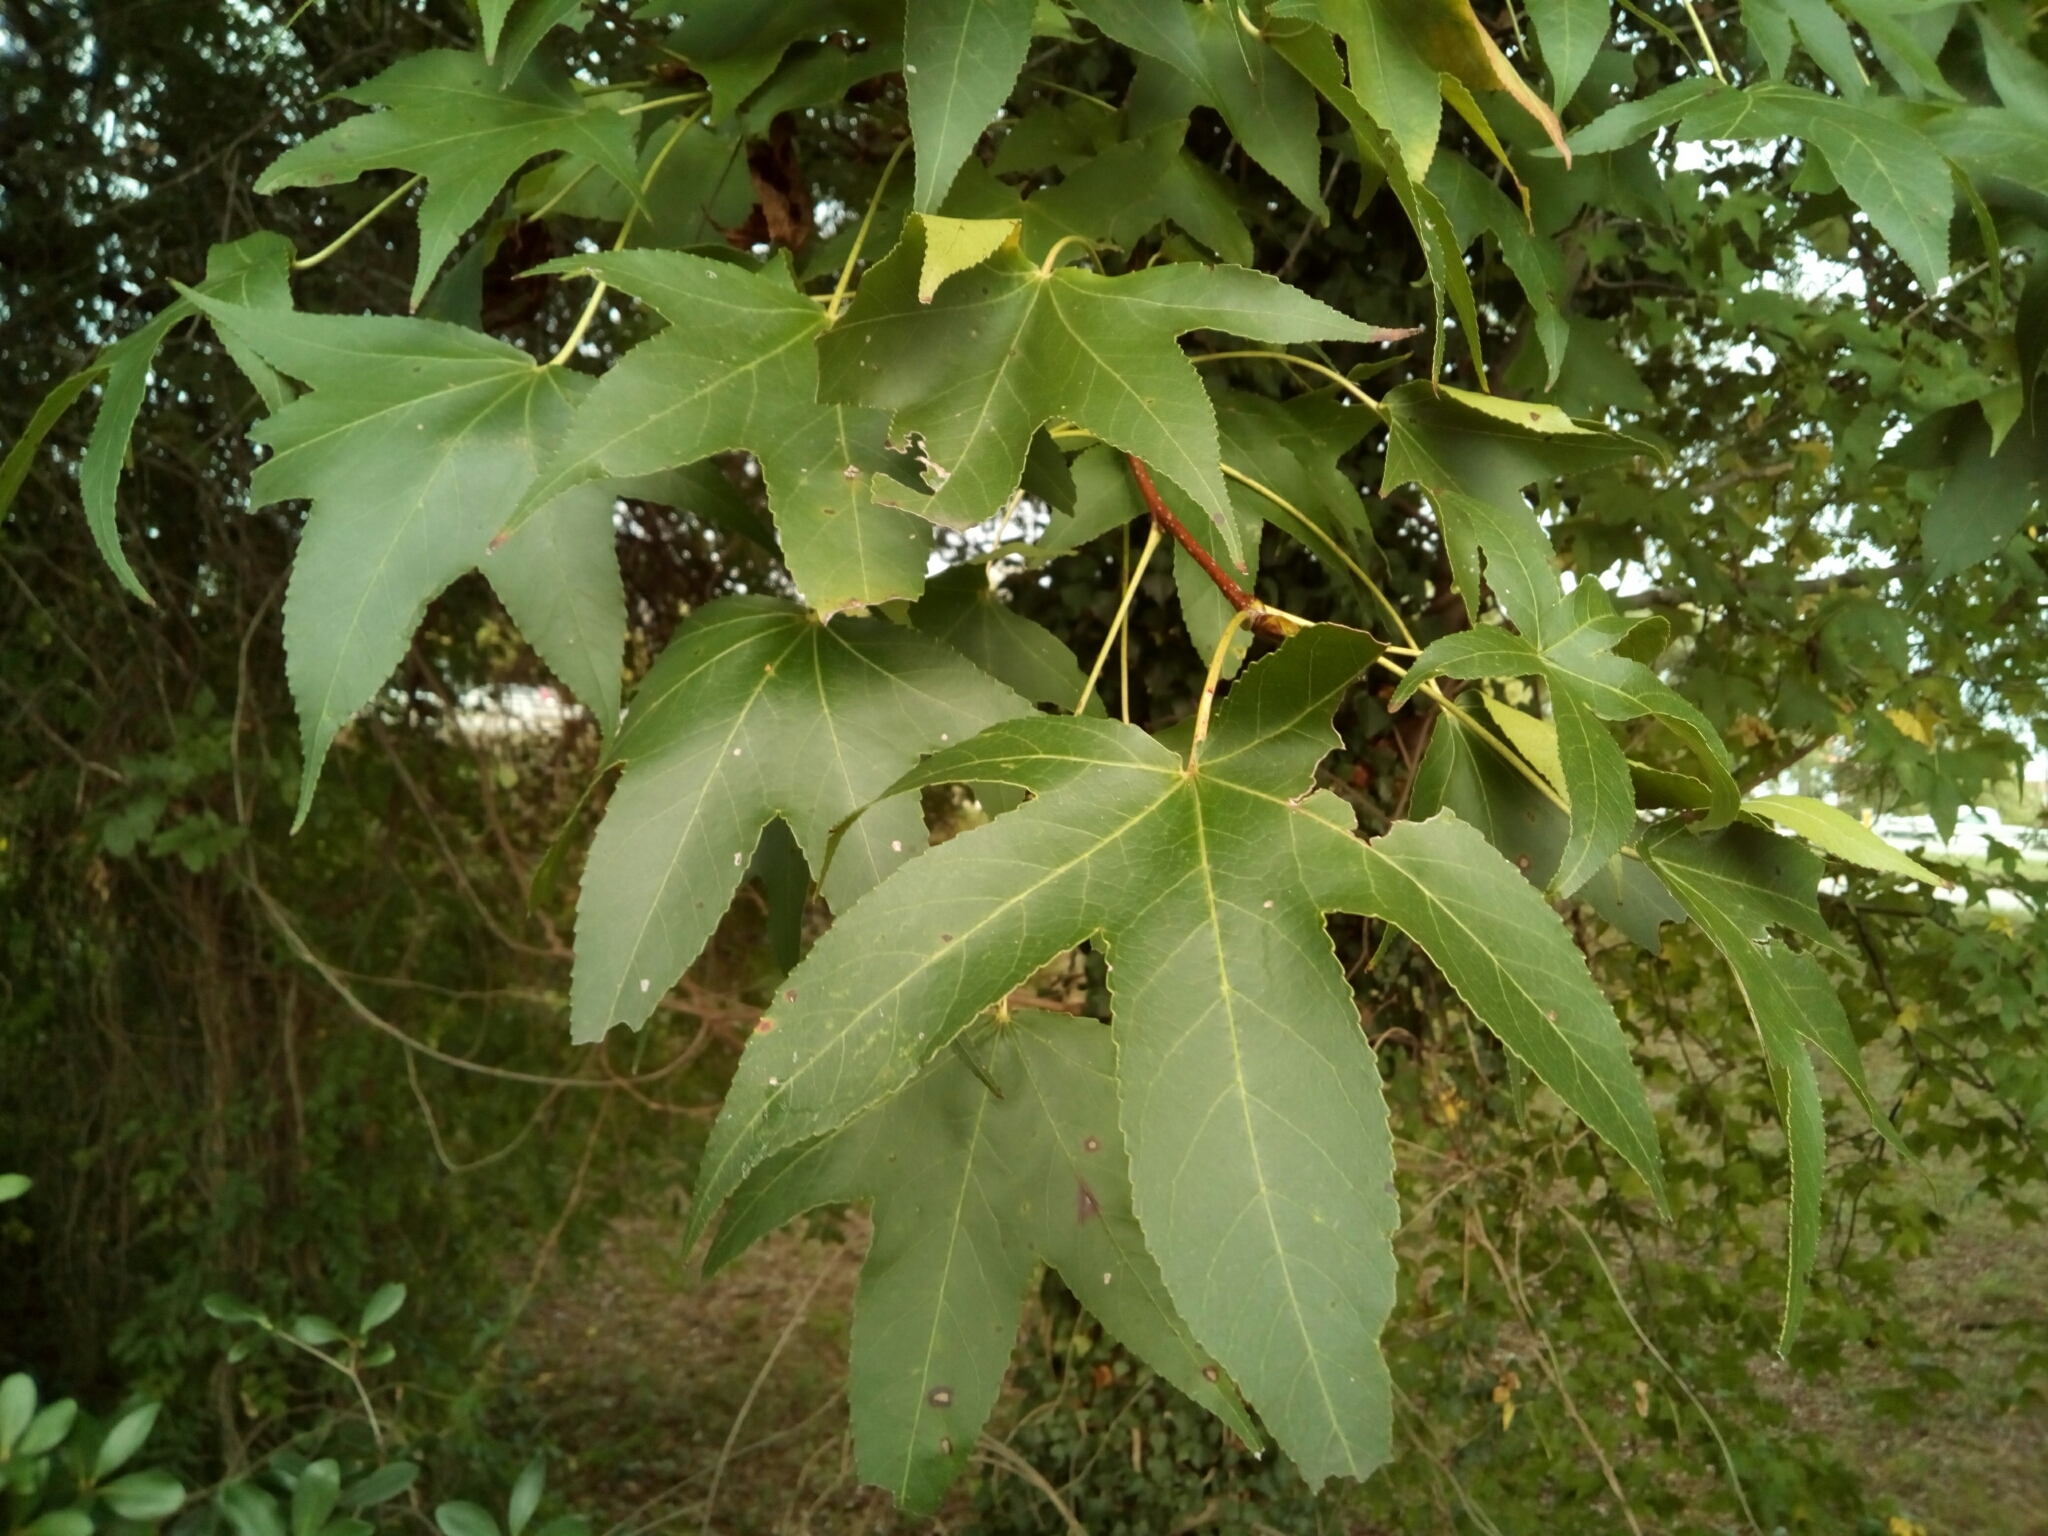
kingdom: Plantae
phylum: Tracheophyta
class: Magnoliopsida
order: Saxifragales
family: Altingiaceae
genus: Liquidambar
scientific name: Liquidambar styraciflua
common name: Sweet gum
